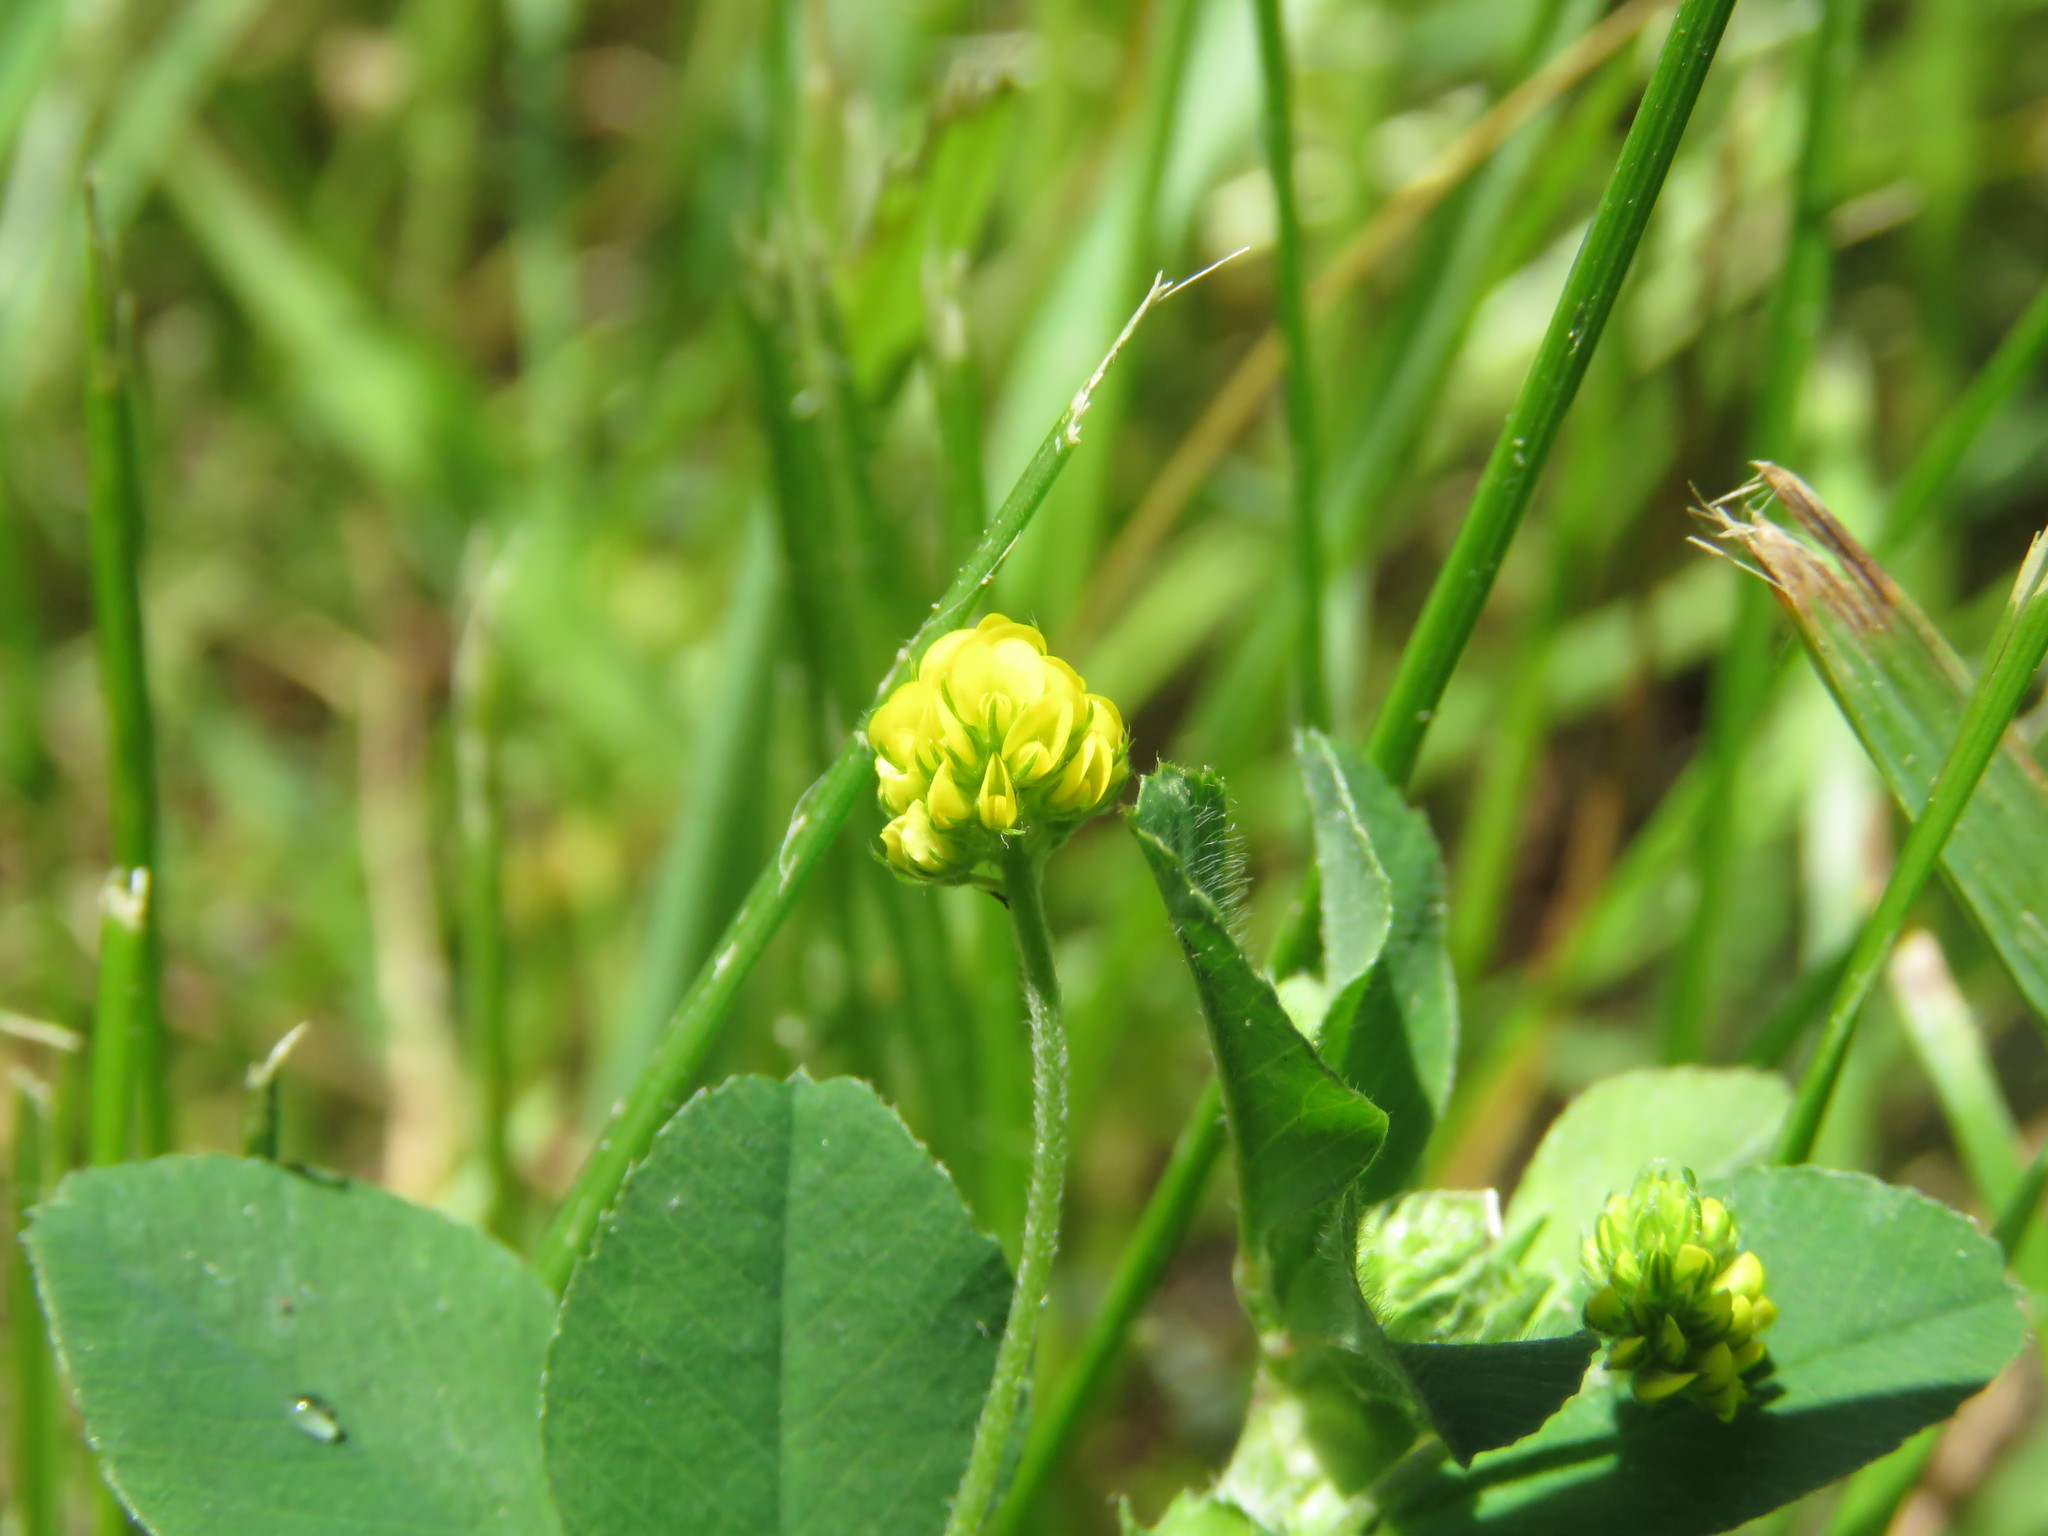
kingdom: Plantae
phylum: Tracheophyta
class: Magnoliopsida
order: Fabales
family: Fabaceae
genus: Medicago
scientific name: Medicago lupulina
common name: Black medick
